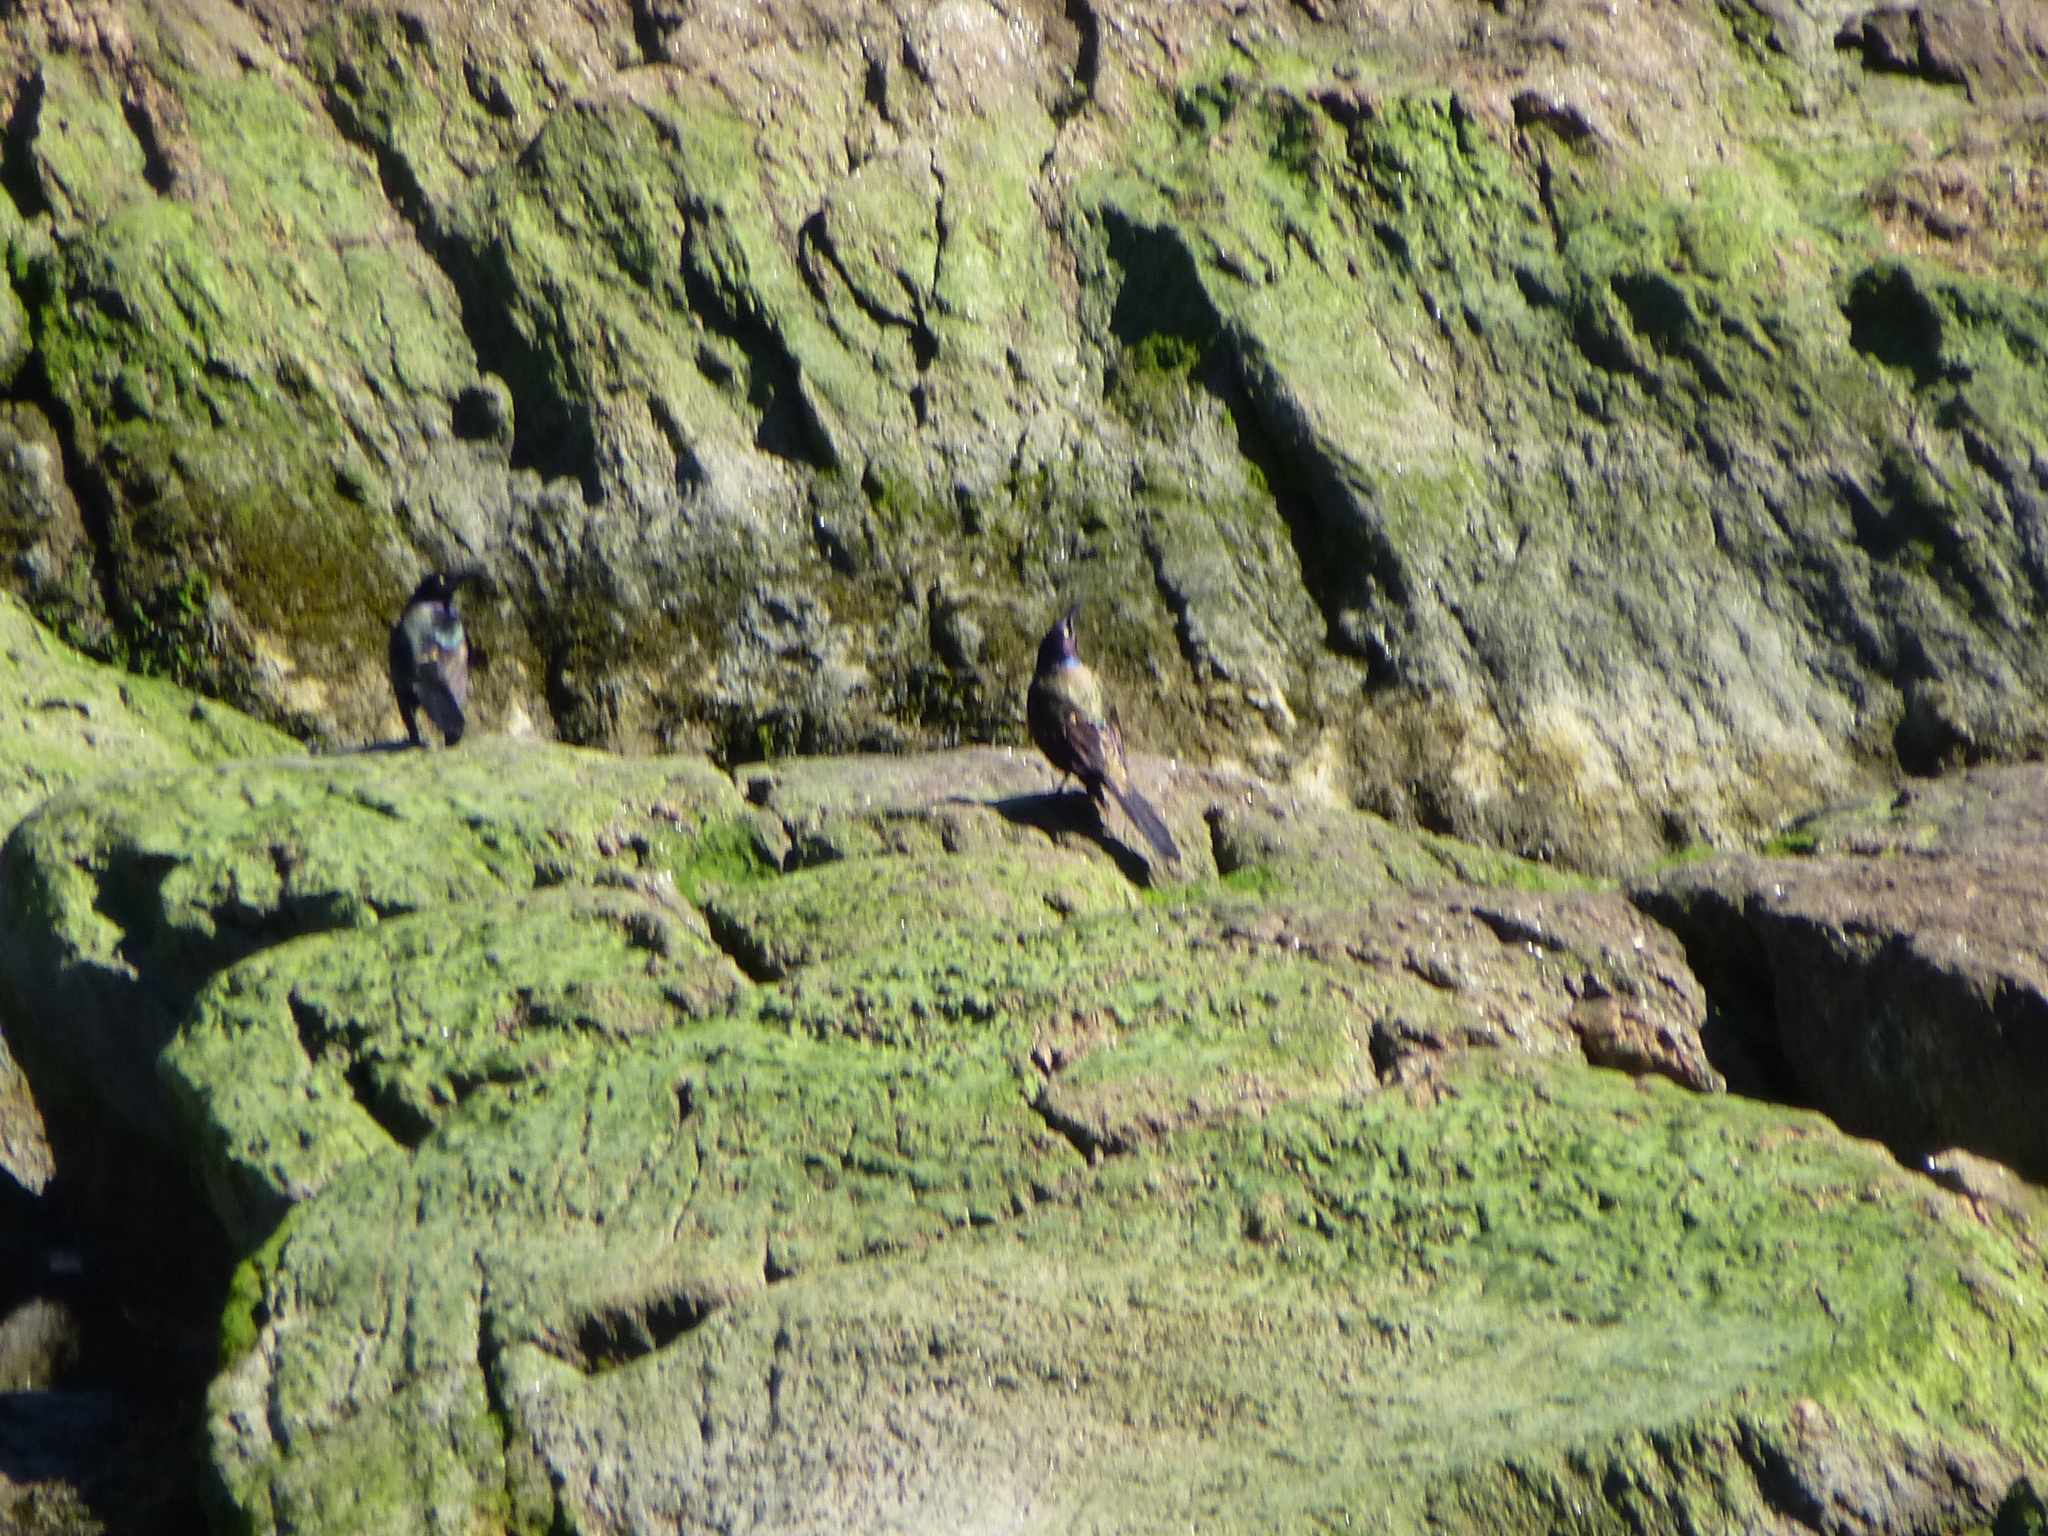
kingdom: Animalia
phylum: Chordata
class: Aves
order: Passeriformes
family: Icteridae
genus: Quiscalus
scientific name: Quiscalus quiscula
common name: Common grackle
